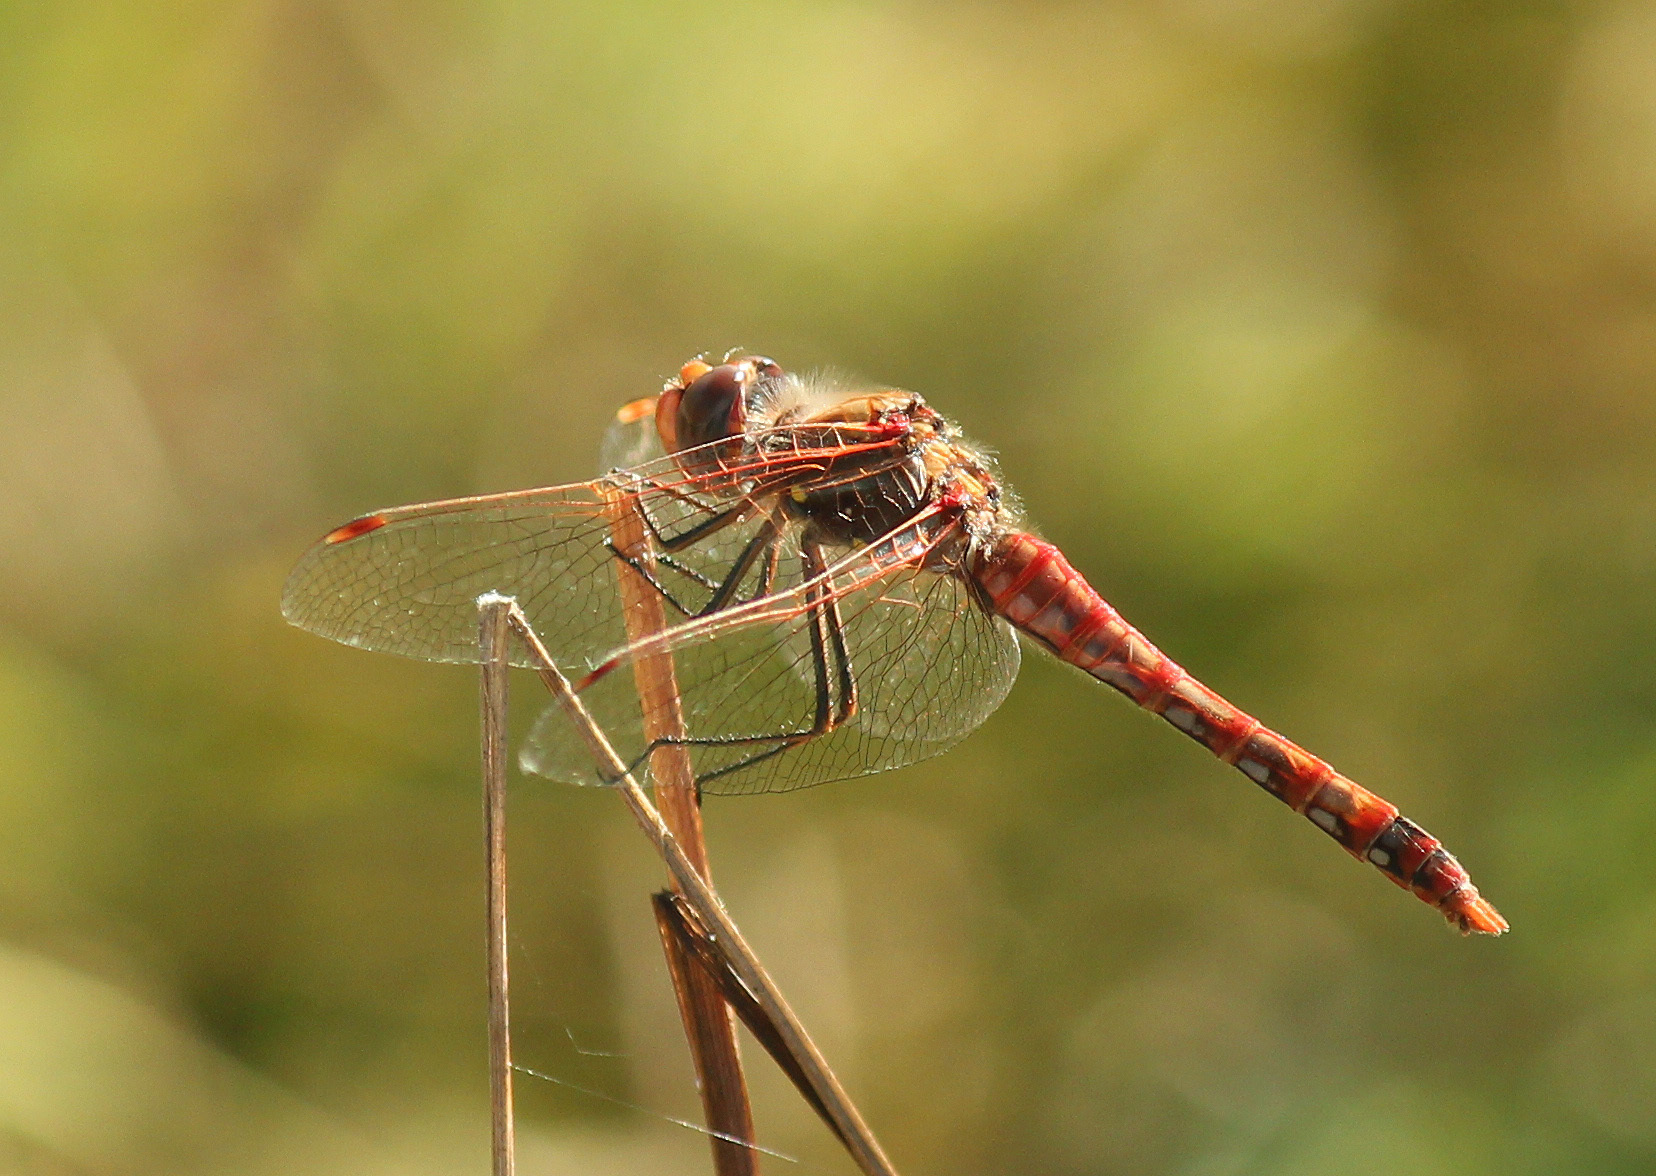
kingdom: Animalia
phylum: Arthropoda
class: Insecta
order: Odonata
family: Libellulidae
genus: Sympetrum
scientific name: Sympetrum corruptum
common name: Variegated meadowhawk
